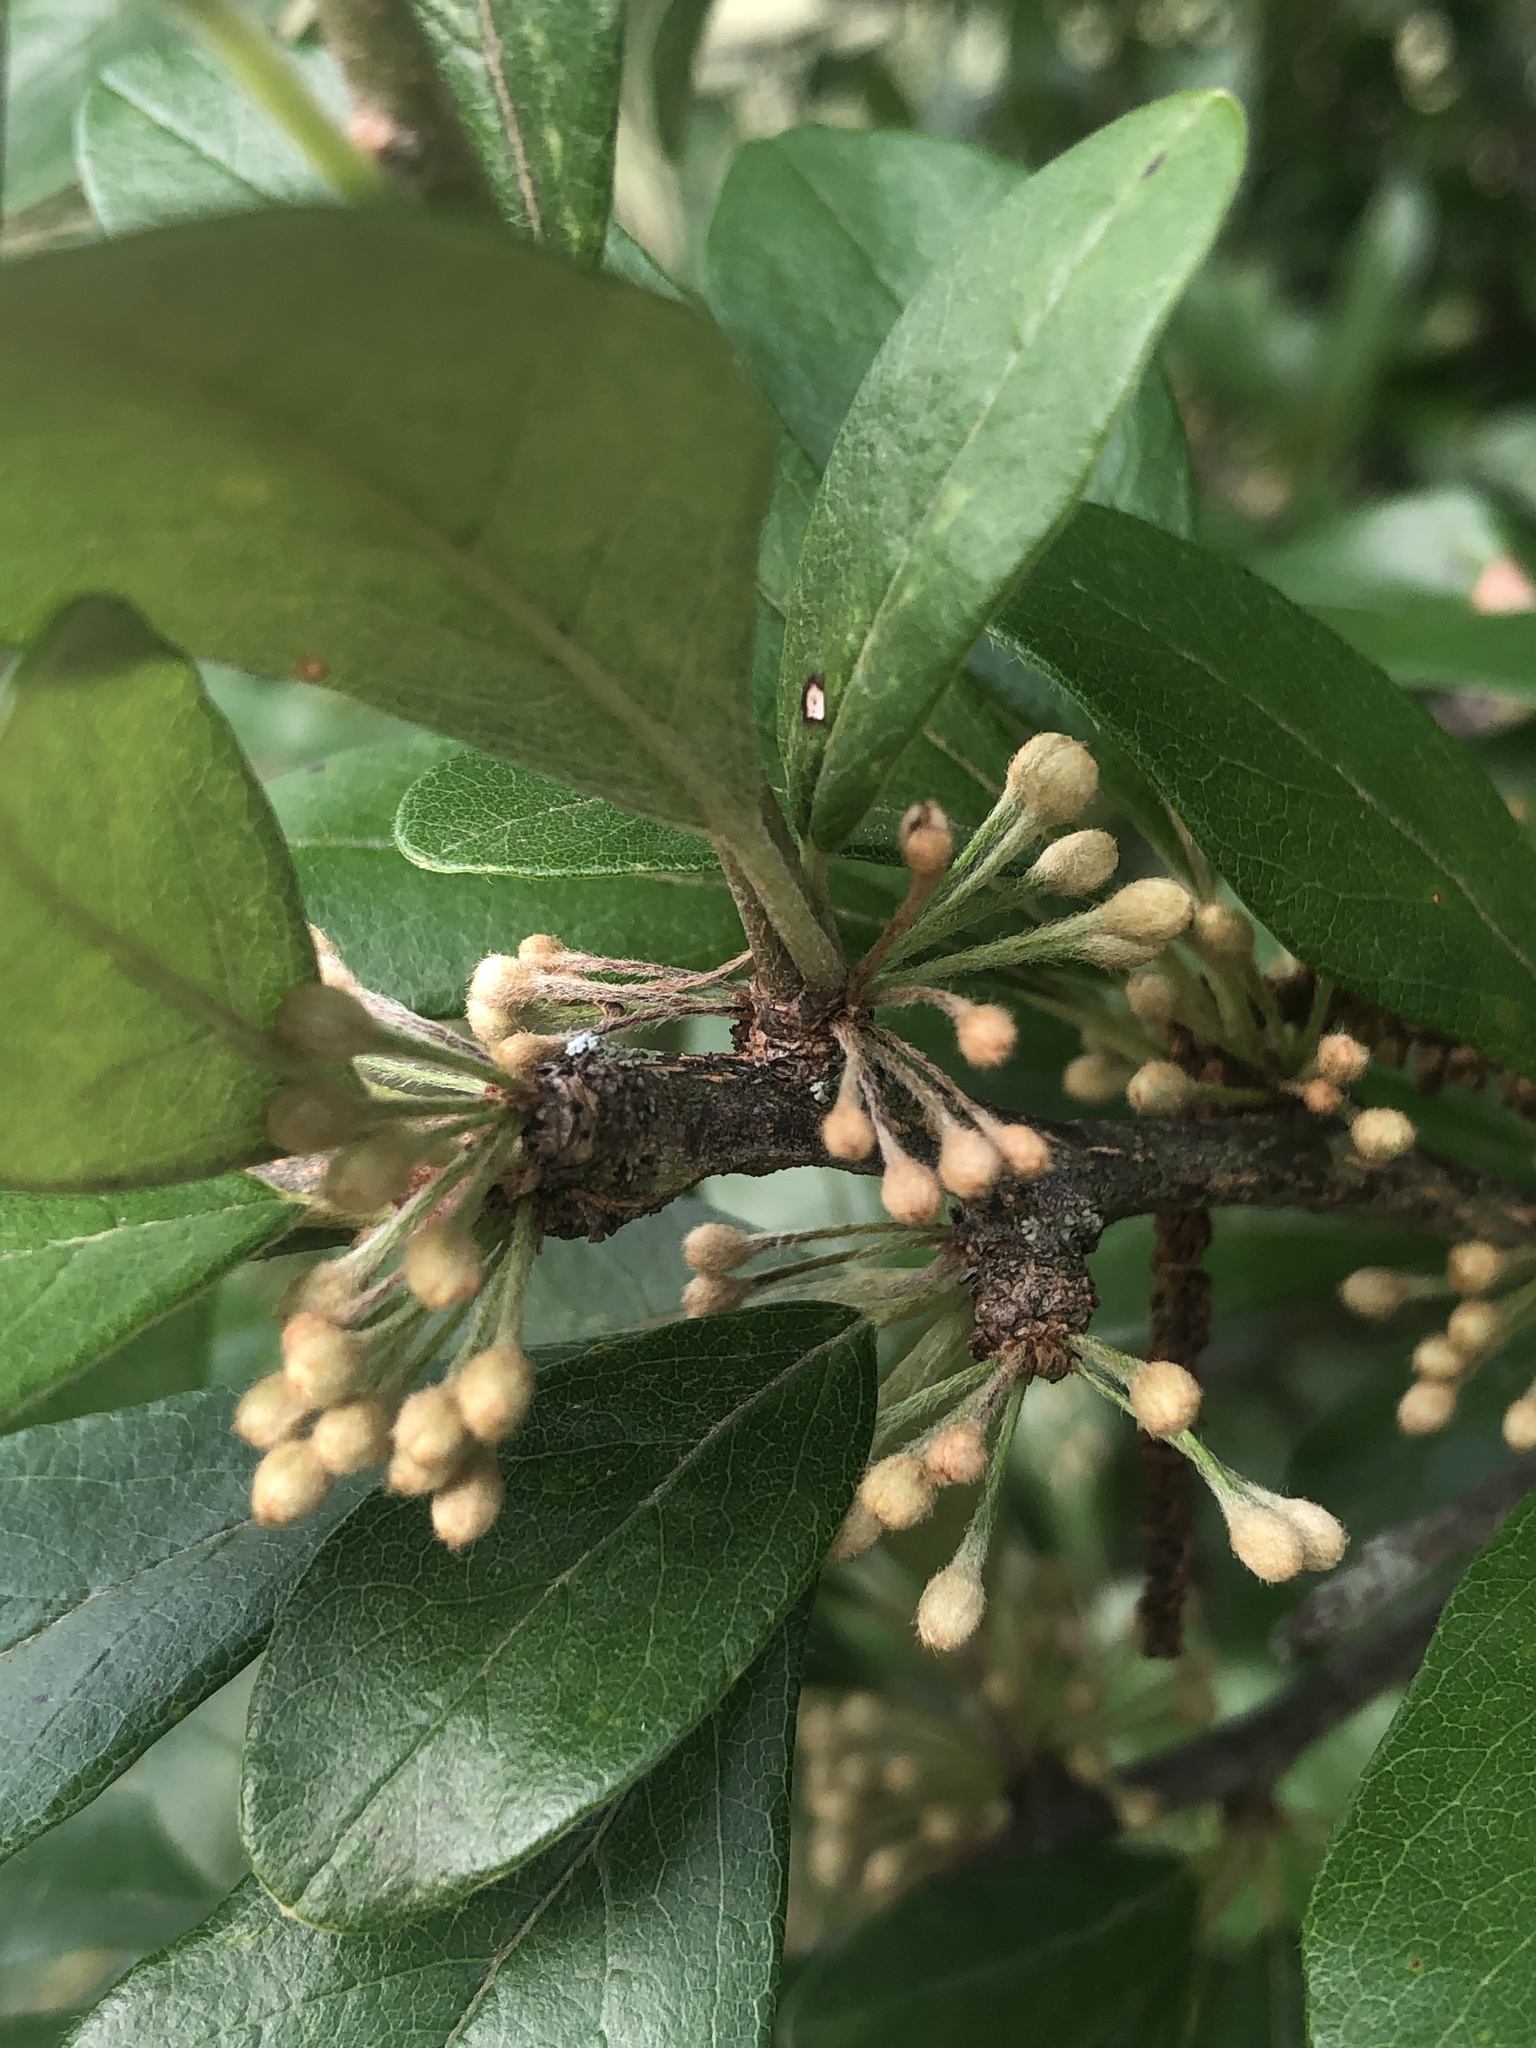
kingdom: Plantae
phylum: Tracheophyta
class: Magnoliopsida
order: Ericales
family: Sapotaceae
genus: Sideroxylon
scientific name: Sideroxylon lanuginosum
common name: Chittamwood
